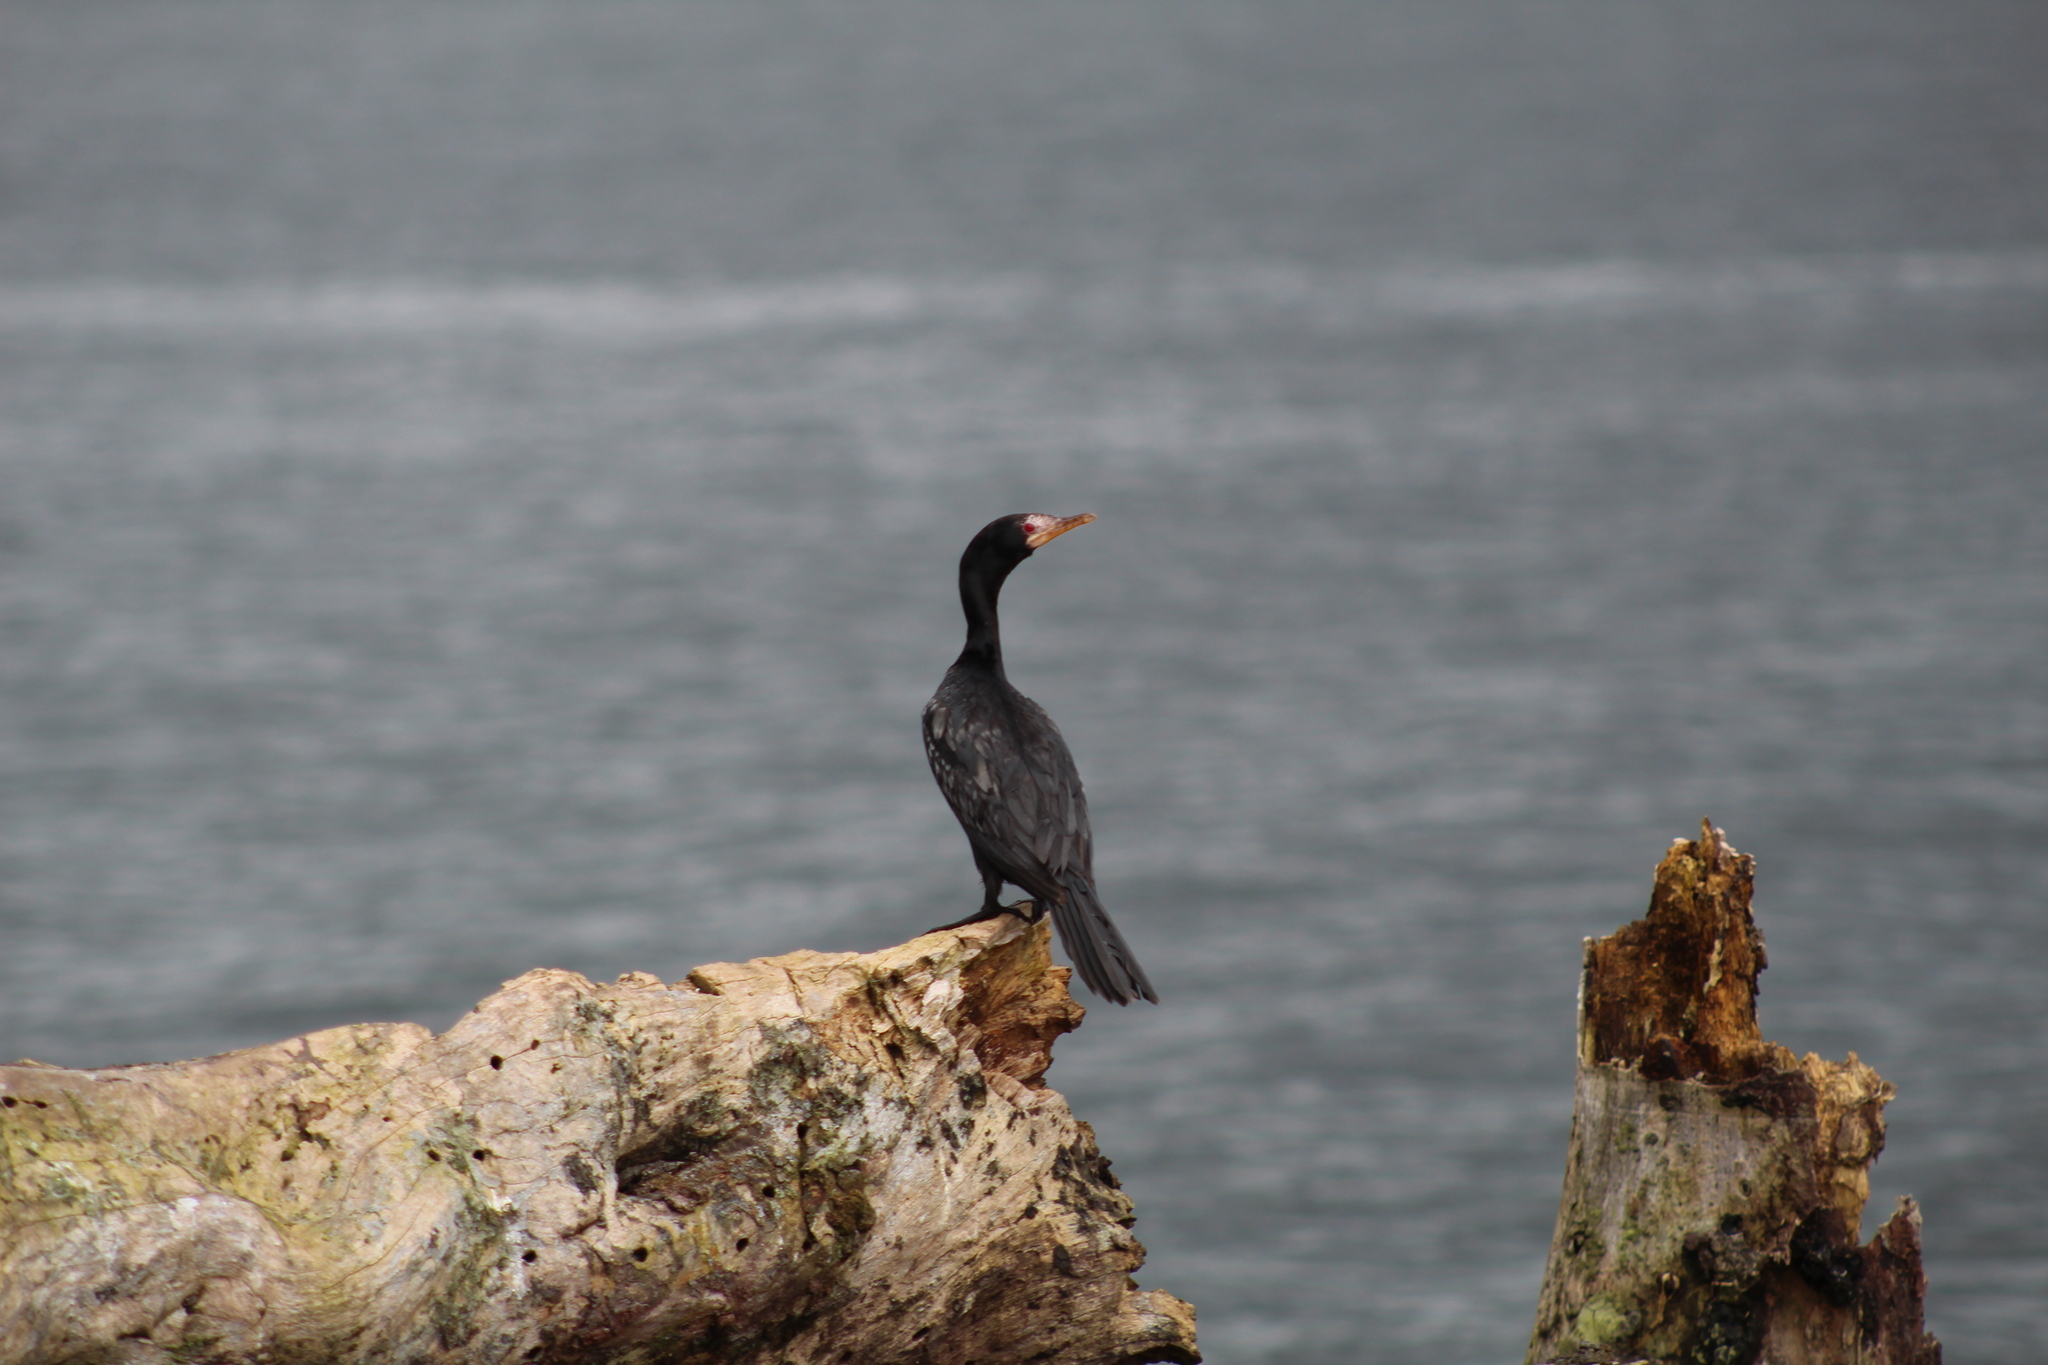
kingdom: Animalia
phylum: Chordata
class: Aves
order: Suliformes
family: Phalacrocoracidae
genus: Microcarbo
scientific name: Microcarbo africanus
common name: Long-tailed cormorant
